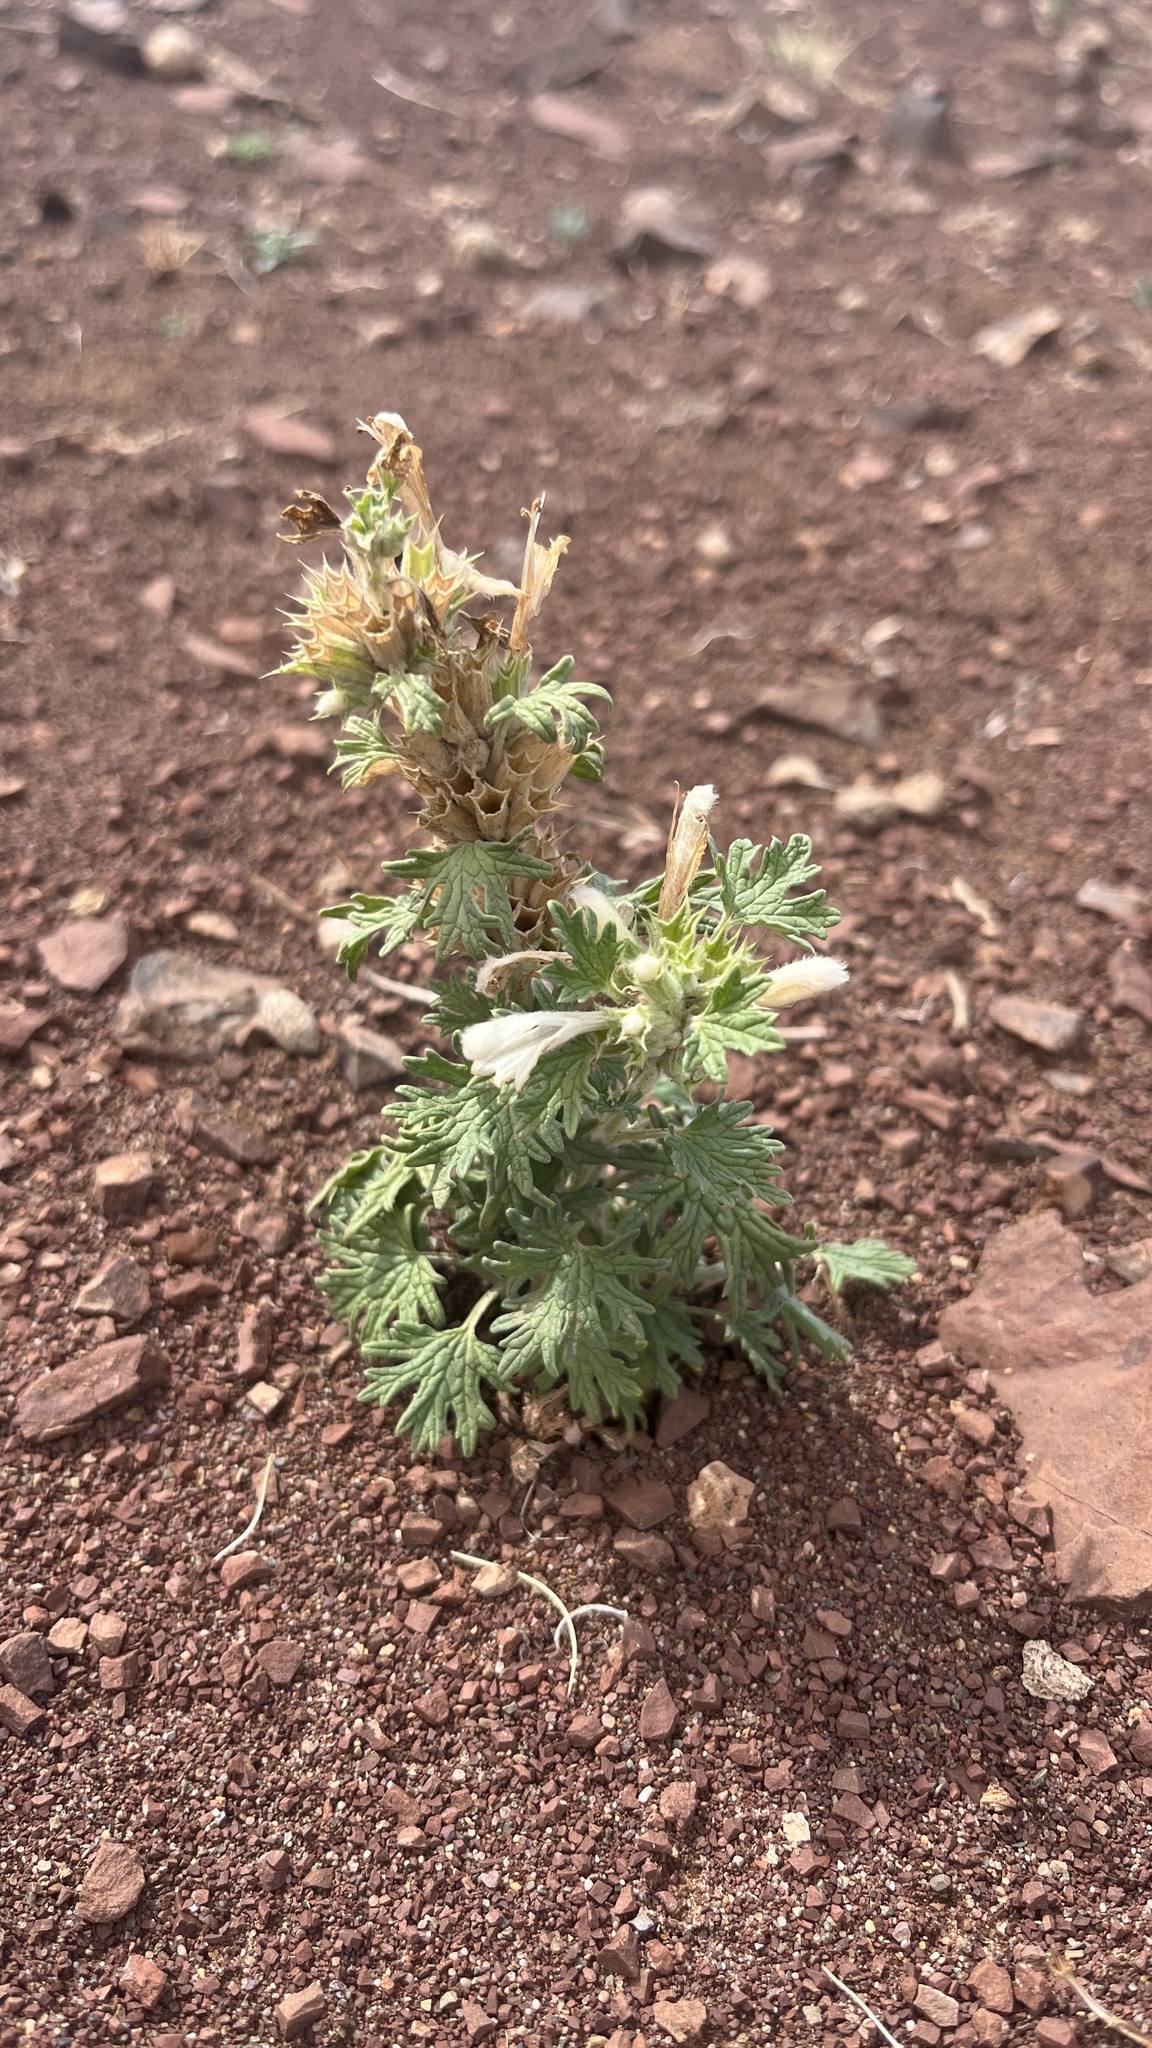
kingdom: Plantae
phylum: Tracheophyta
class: Magnoliopsida
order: Lamiales
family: Lamiaceae
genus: Panzerina
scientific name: Panzerina lanata
